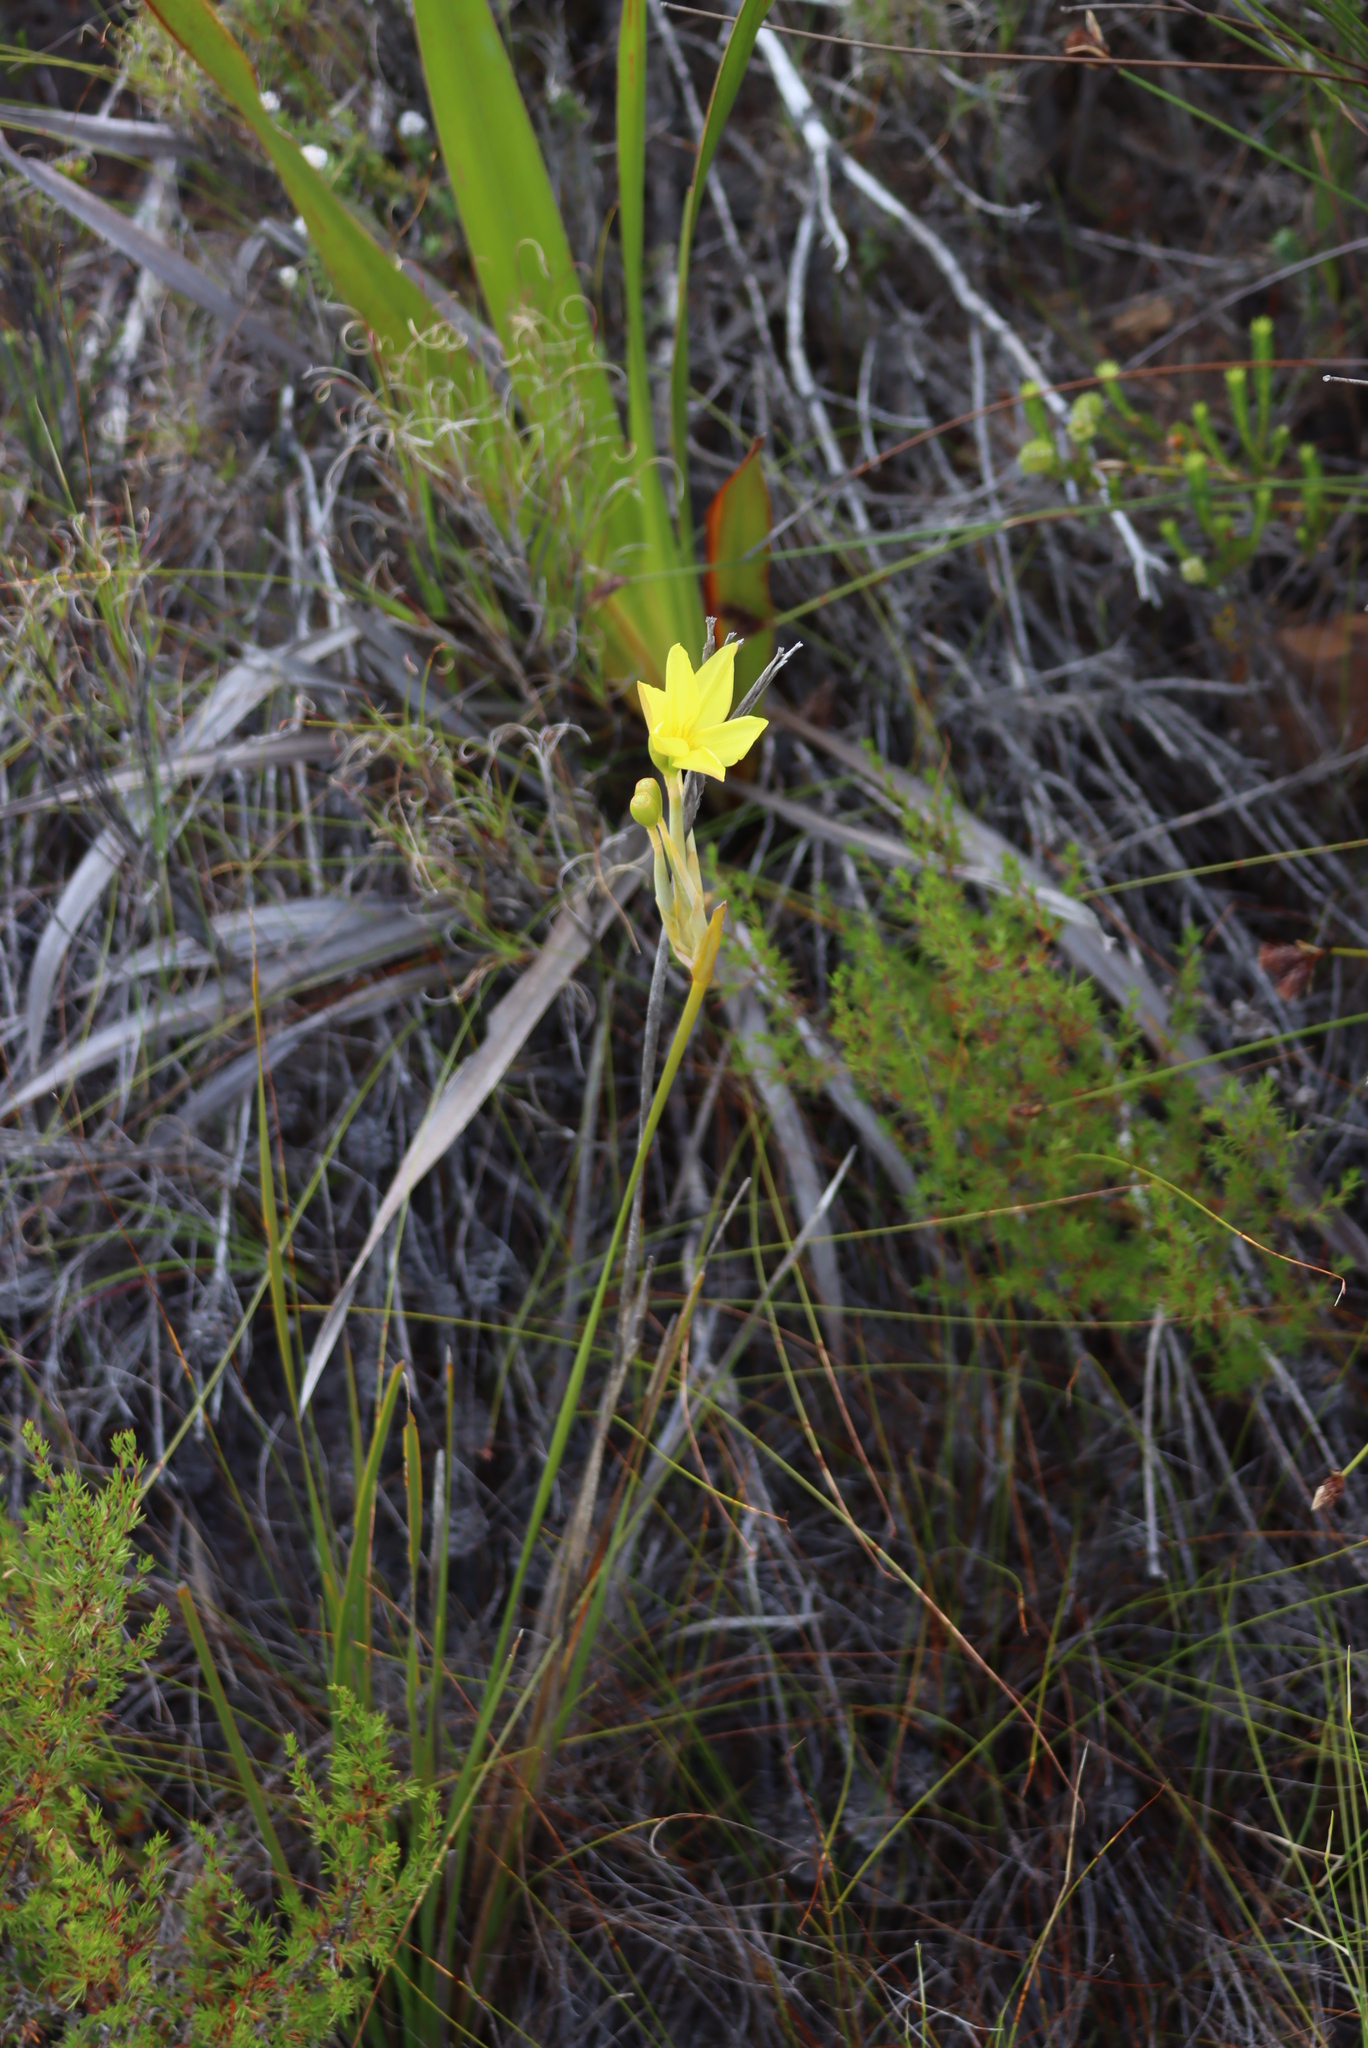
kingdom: Plantae
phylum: Tracheophyta
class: Liliopsida
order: Asparagales
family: Iridaceae
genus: Bobartia
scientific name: Bobartia gladiata
